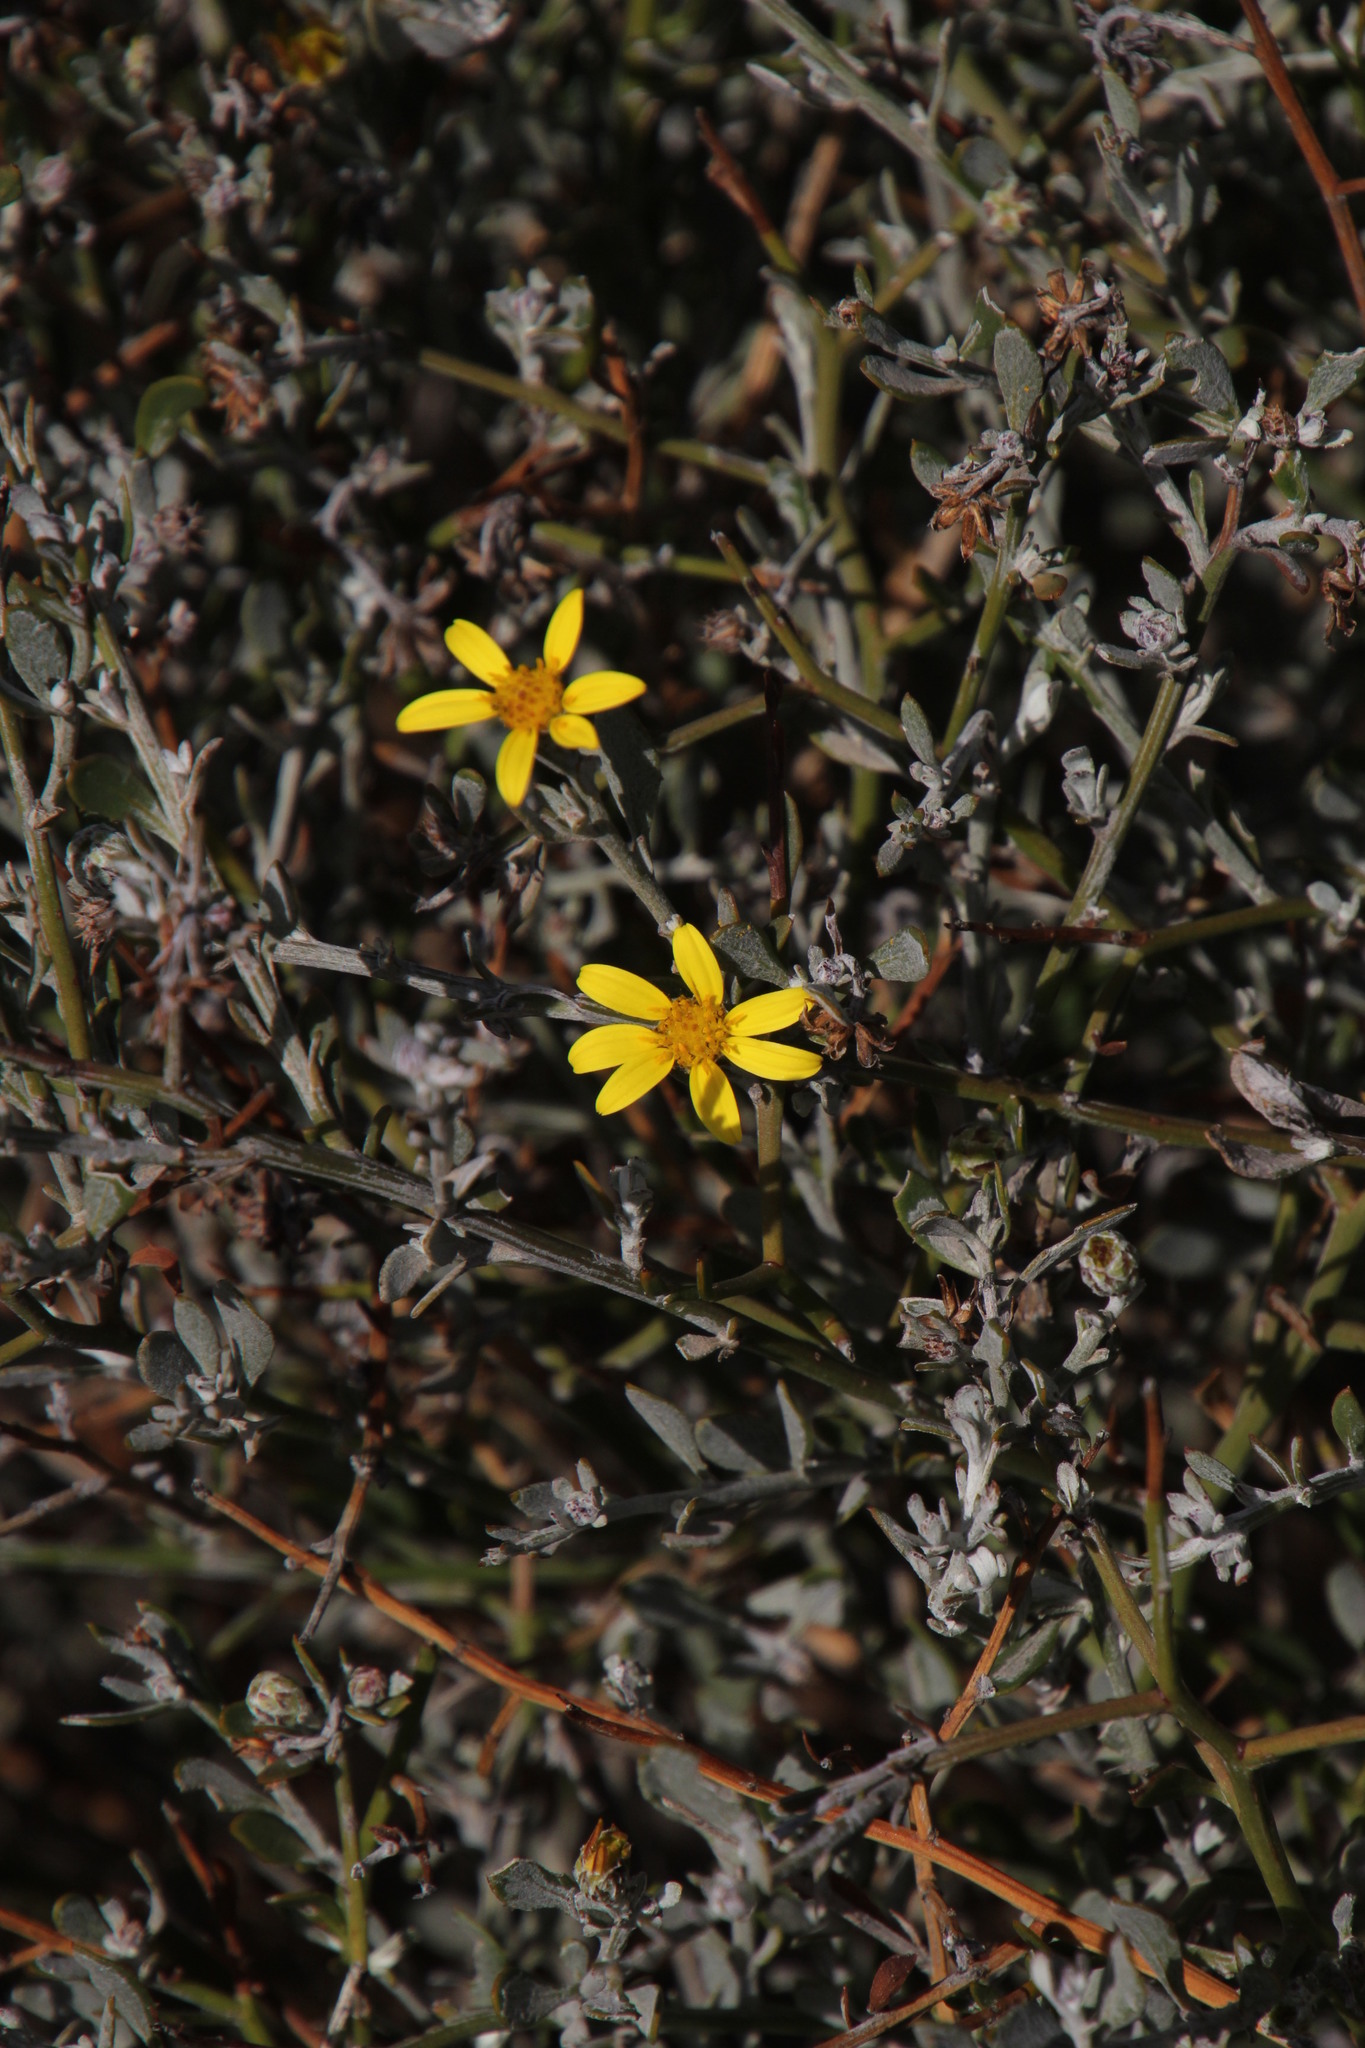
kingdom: Plantae
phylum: Tracheophyta
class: Magnoliopsida
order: Asterales
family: Asteraceae
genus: Osteospermum
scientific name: Osteospermum incanum
